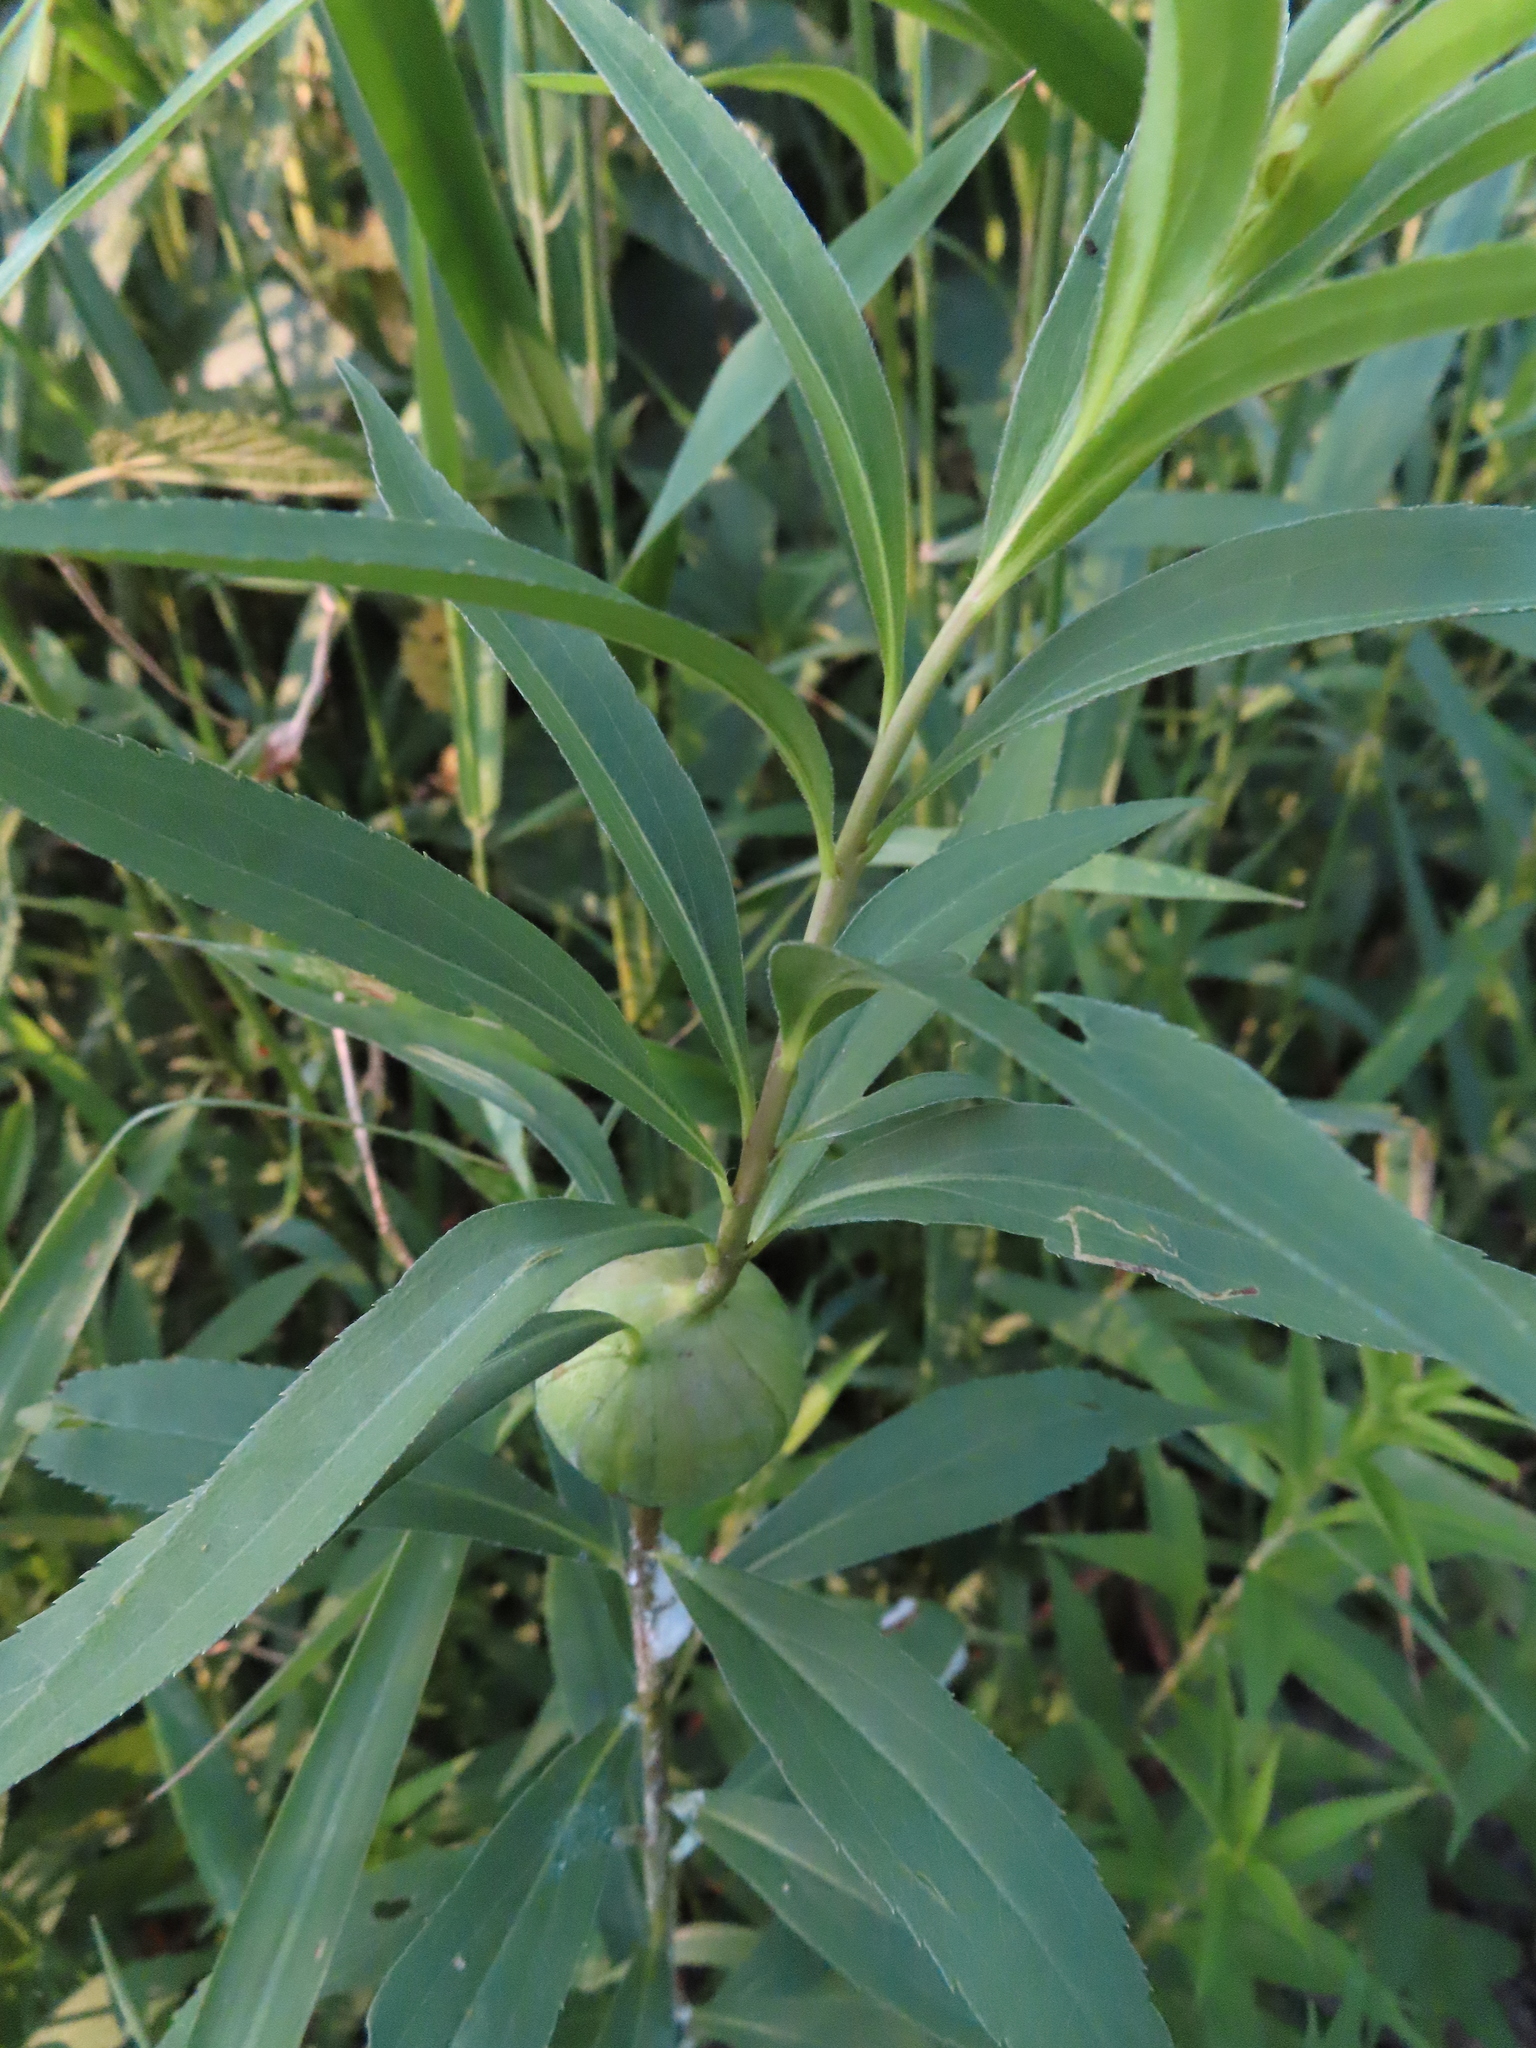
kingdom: Animalia
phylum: Arthropoda
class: Insecta
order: Diptera
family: Tephritidae
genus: Eurosta
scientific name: Eurosta solidaginis
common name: Goldenrod gall fly
